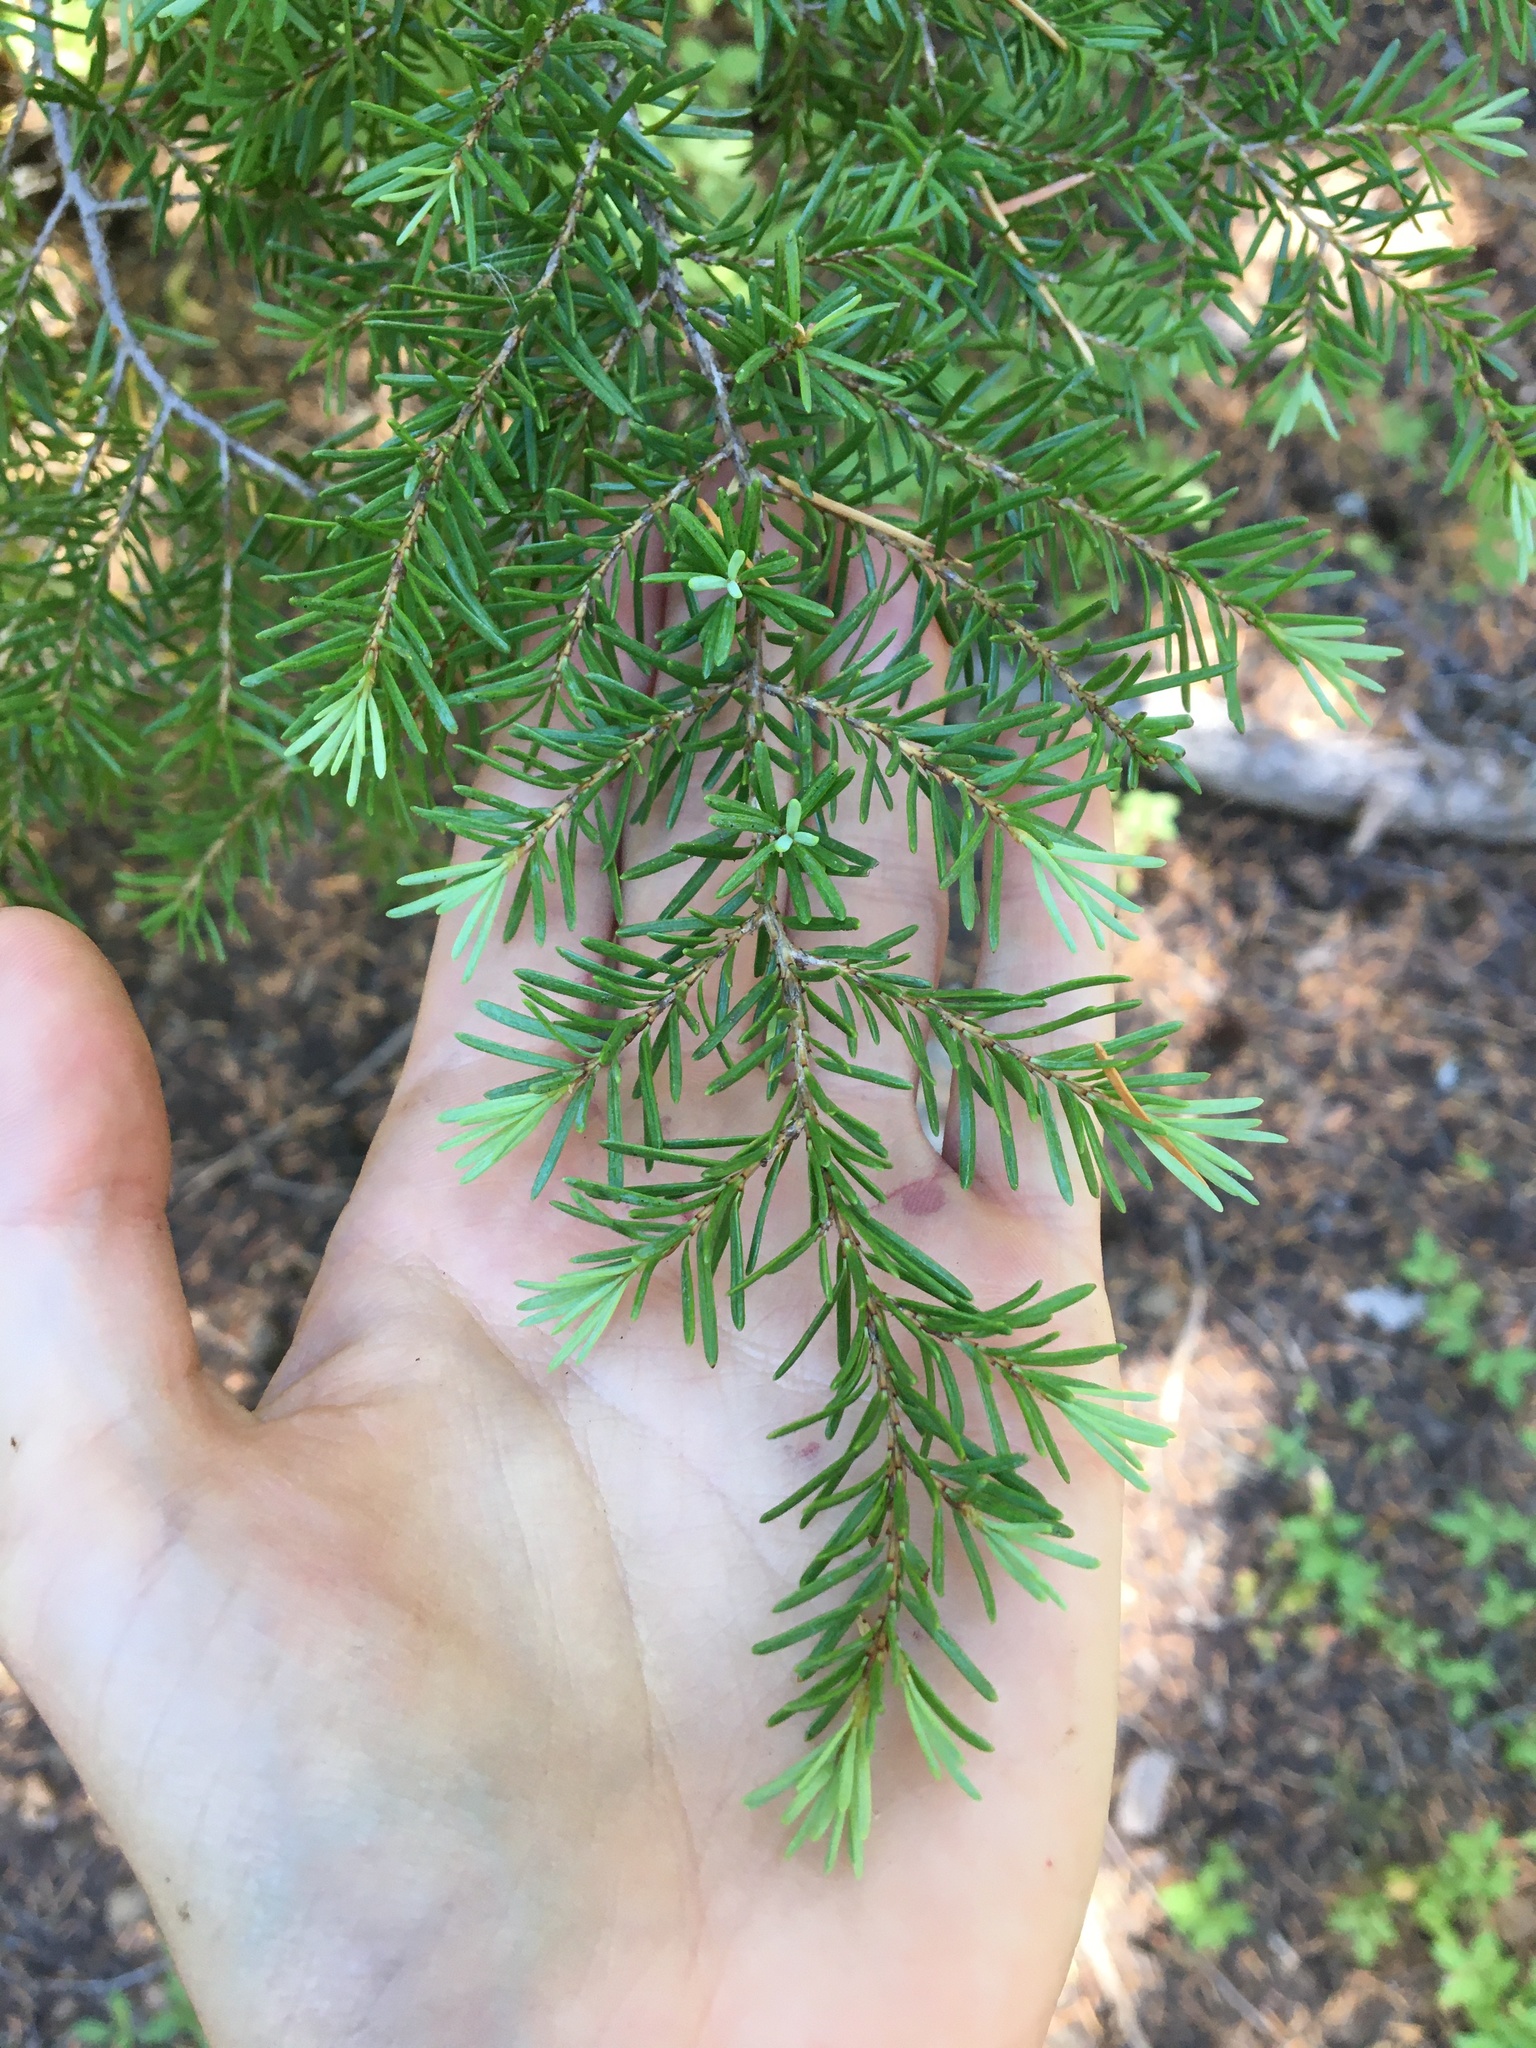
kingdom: Plantae
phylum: Tracheophyta
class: Pinopsida
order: Pinales
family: Pinaceae
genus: Tsuga
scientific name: Tsuga mertensiana
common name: Mountain hemlock
